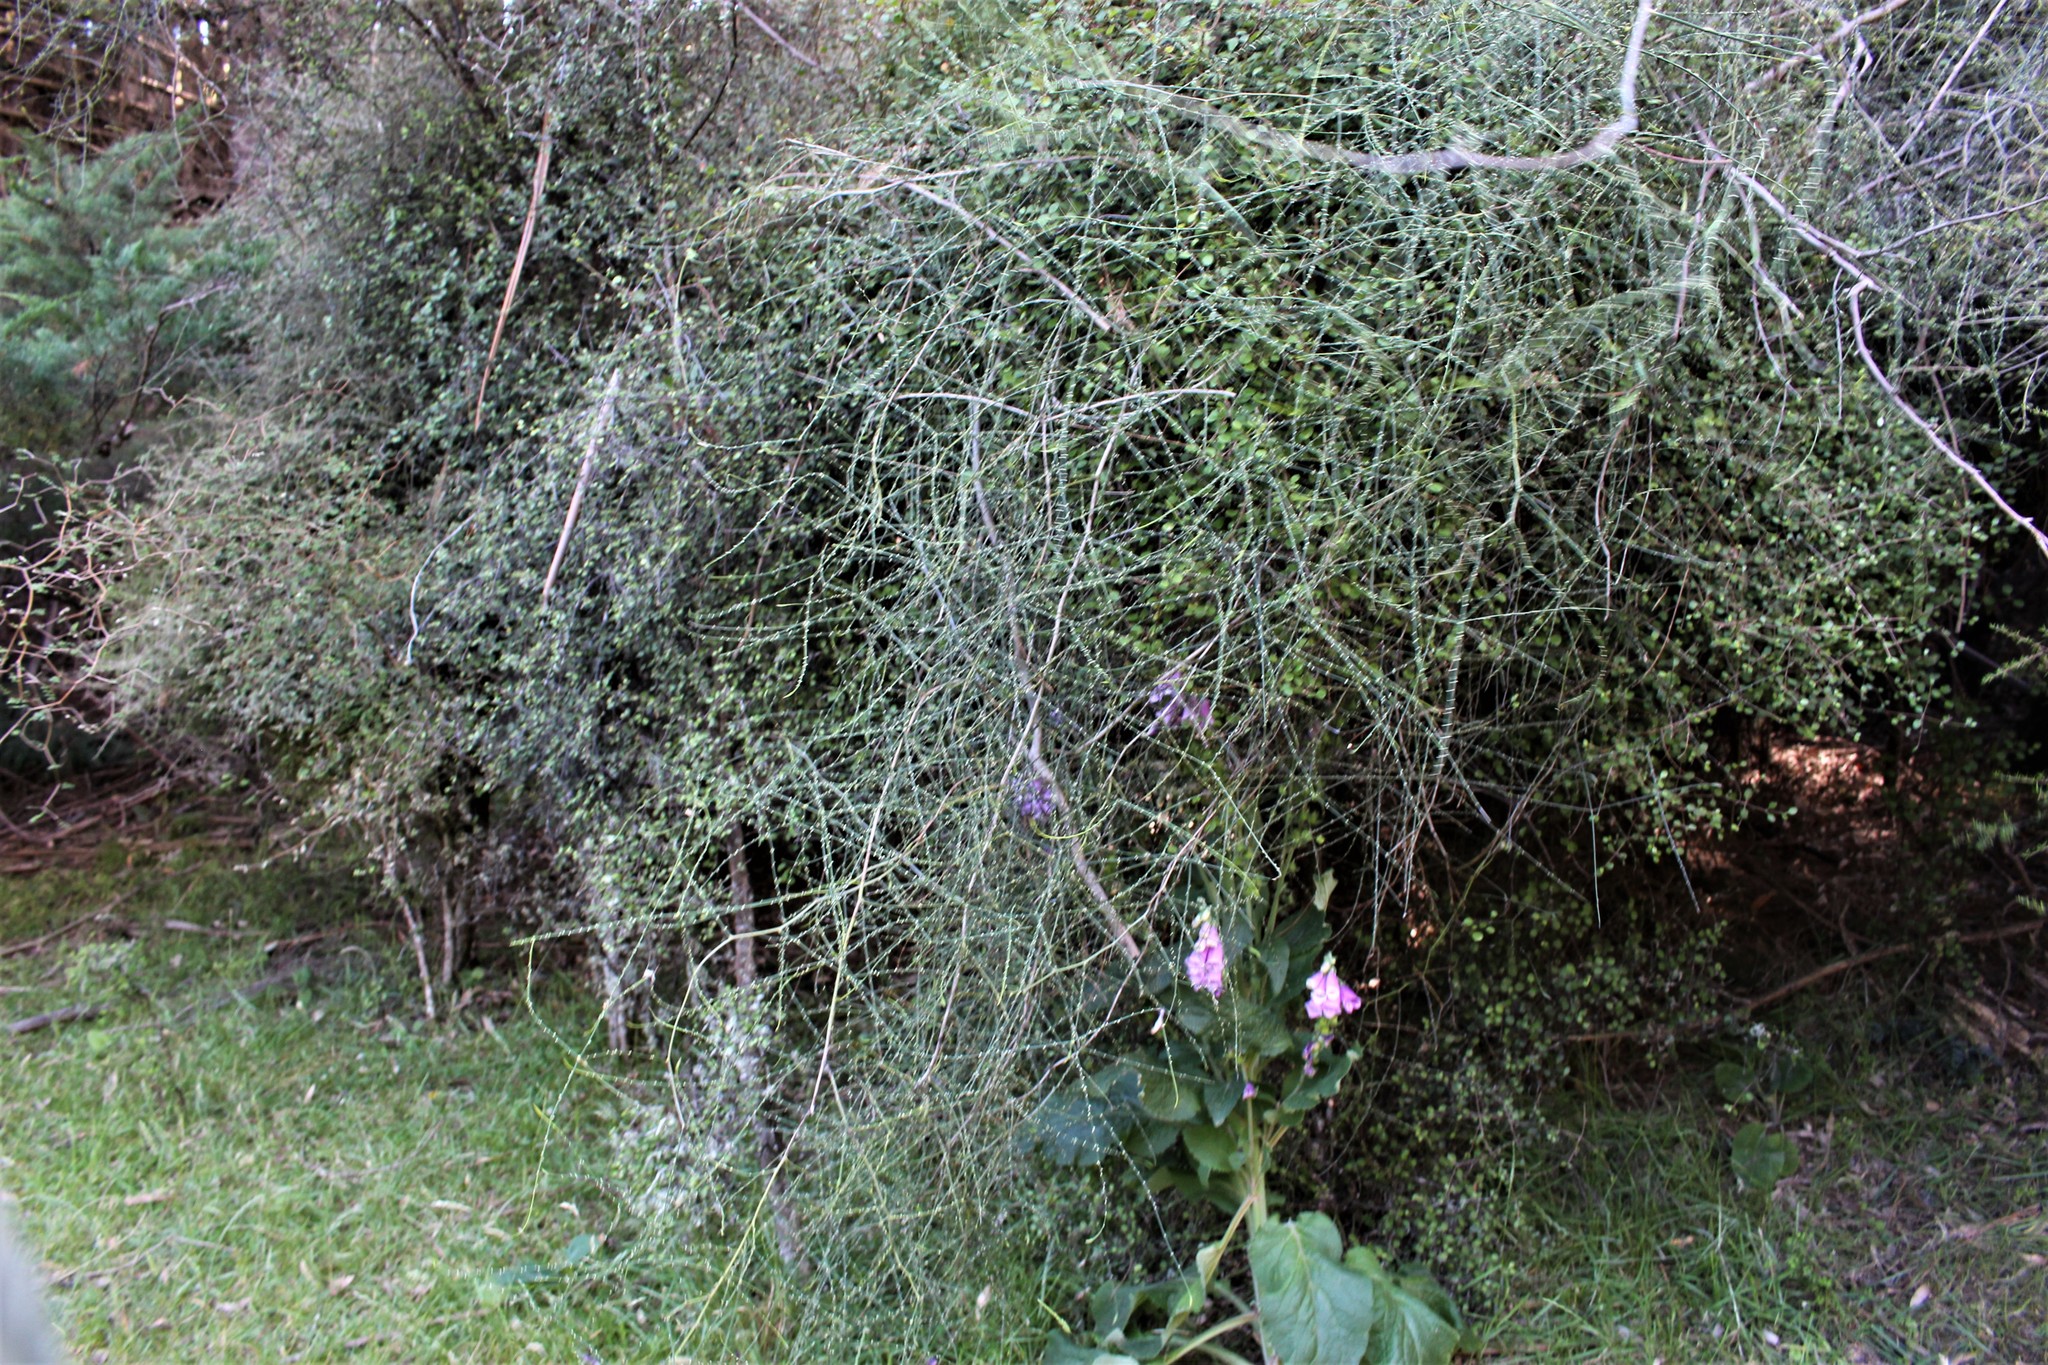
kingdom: Plantae
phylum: Tracheophyta
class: Magnoliopsida
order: Rosales
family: Rosaceae
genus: Rubus
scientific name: Rubus squarrosus
